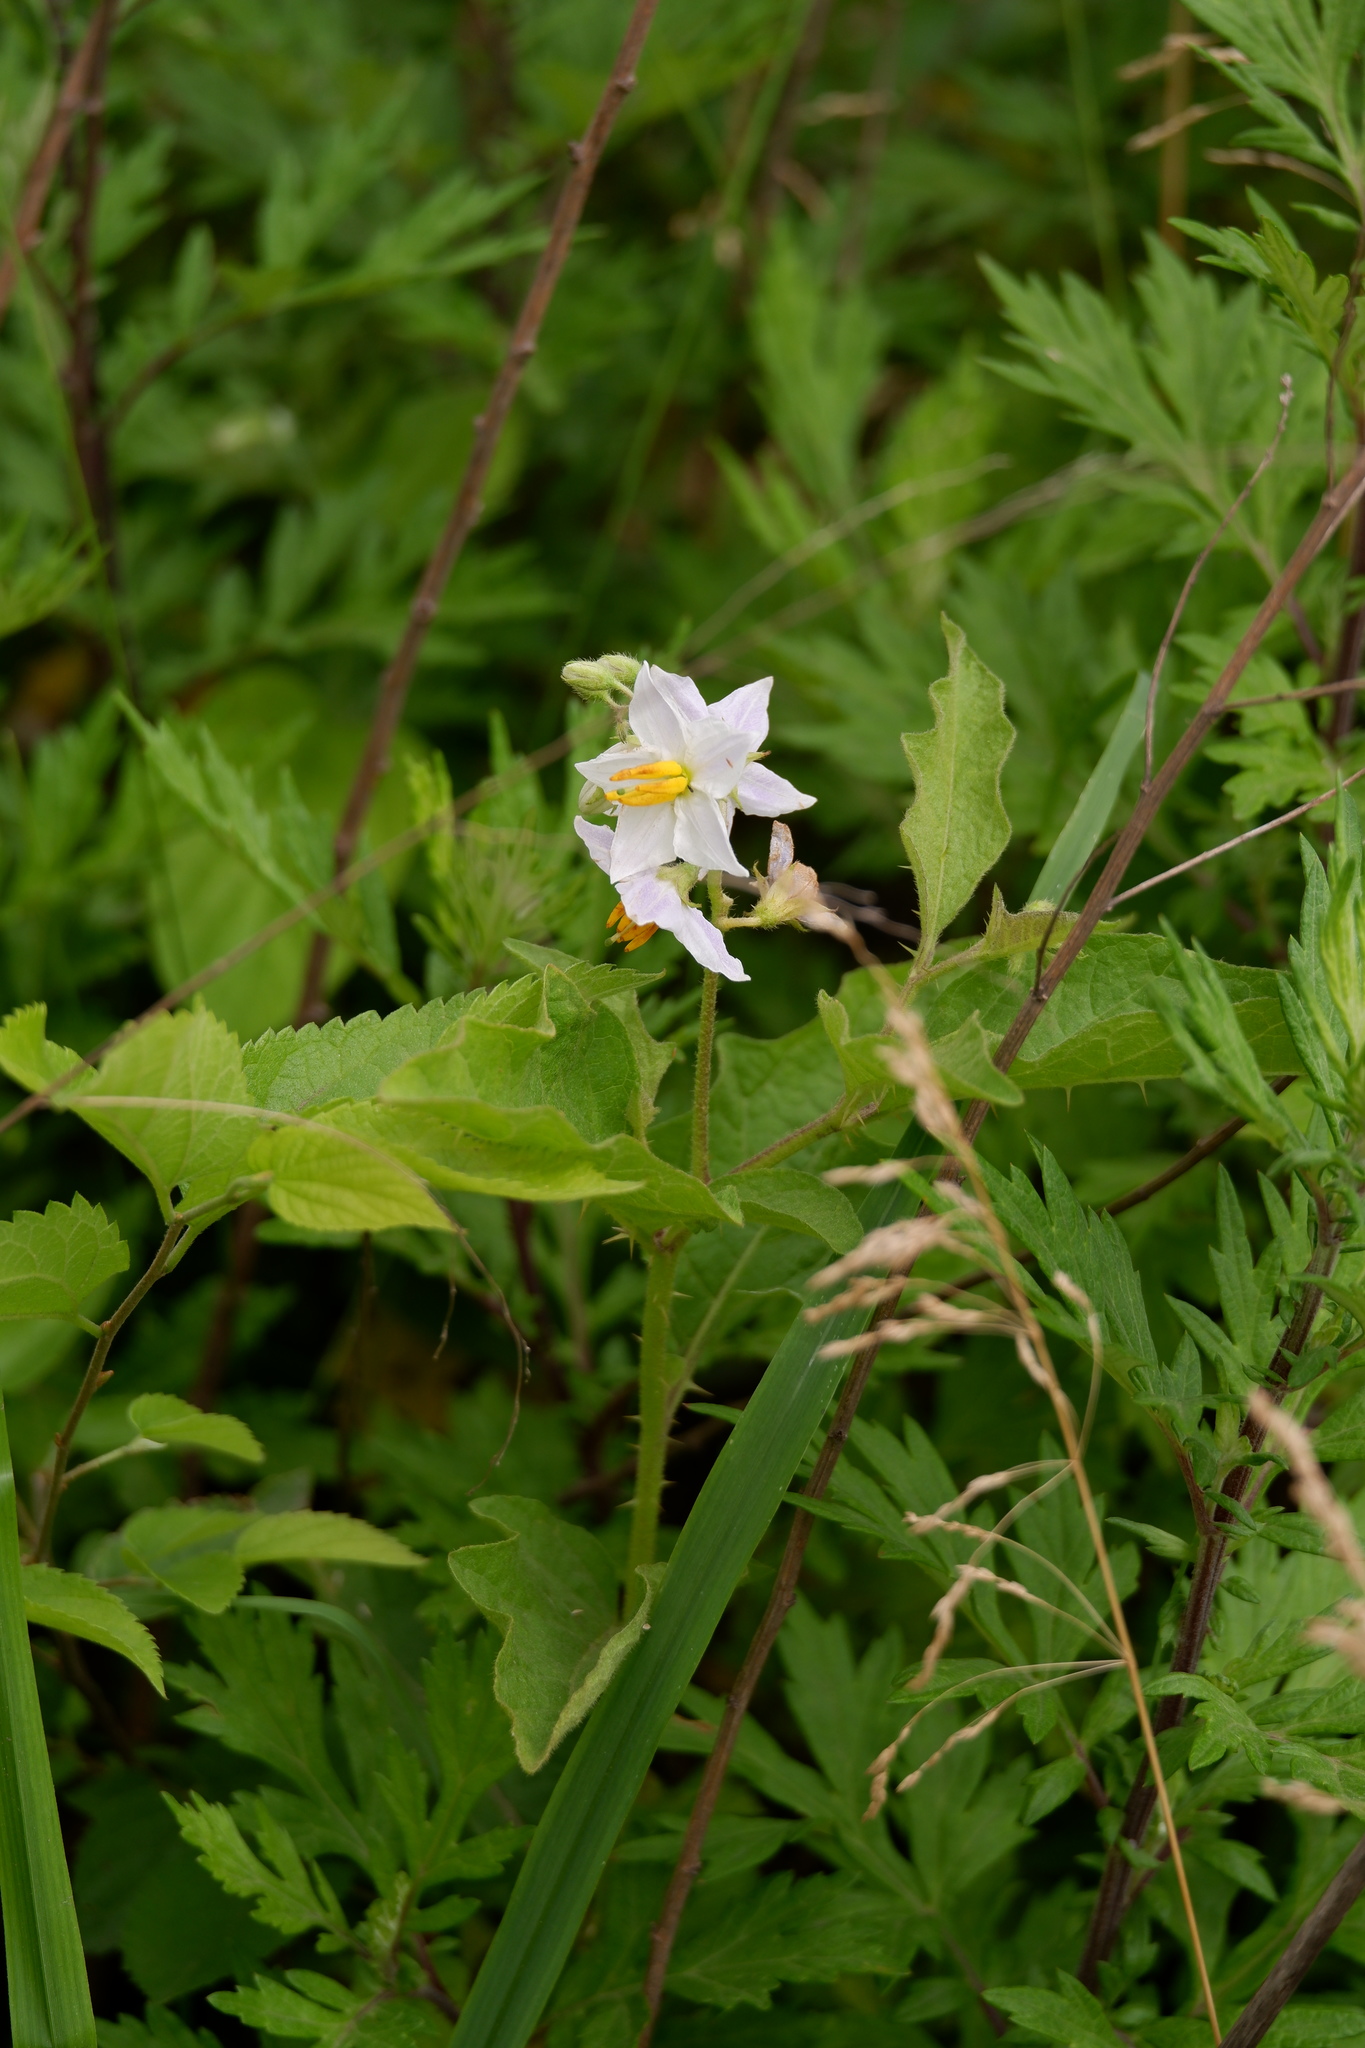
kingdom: Plantae
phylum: Tracheophyta
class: Magnoliopsida
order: Solanales
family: Solanaceae
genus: Solanum
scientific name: Solanum carolinense
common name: Horse-nettle
